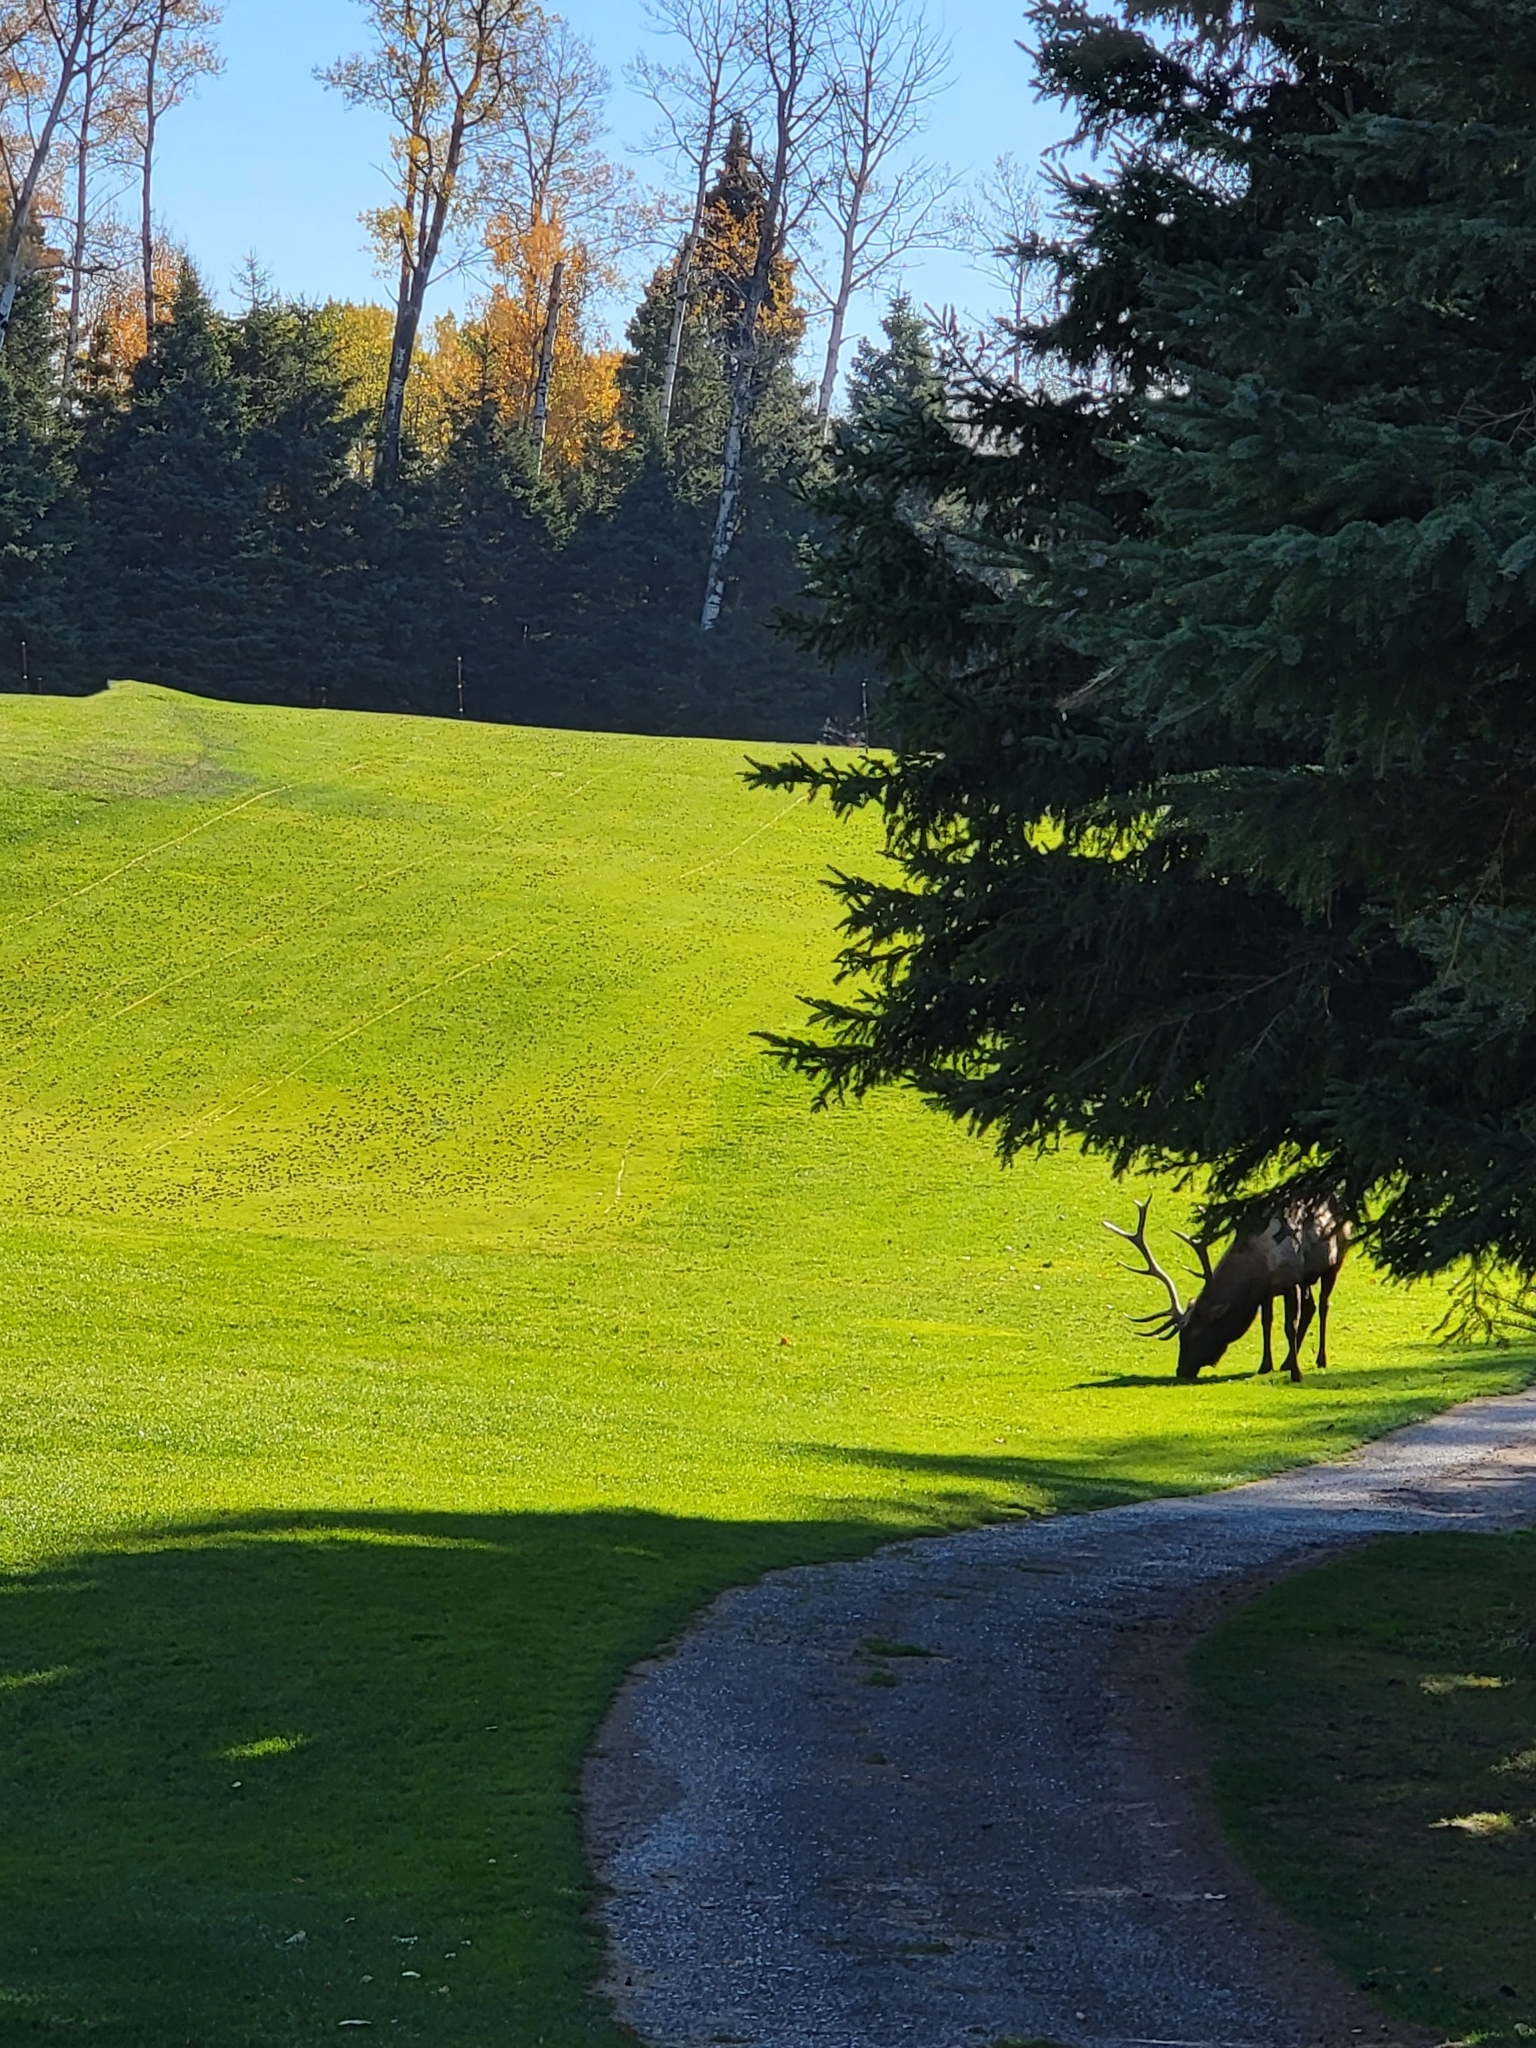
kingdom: Animalia
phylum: Chordata
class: Mammalia
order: Artiodactyla
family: Cervidae
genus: Cervus
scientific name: Cervus elaphus
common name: Red deer
